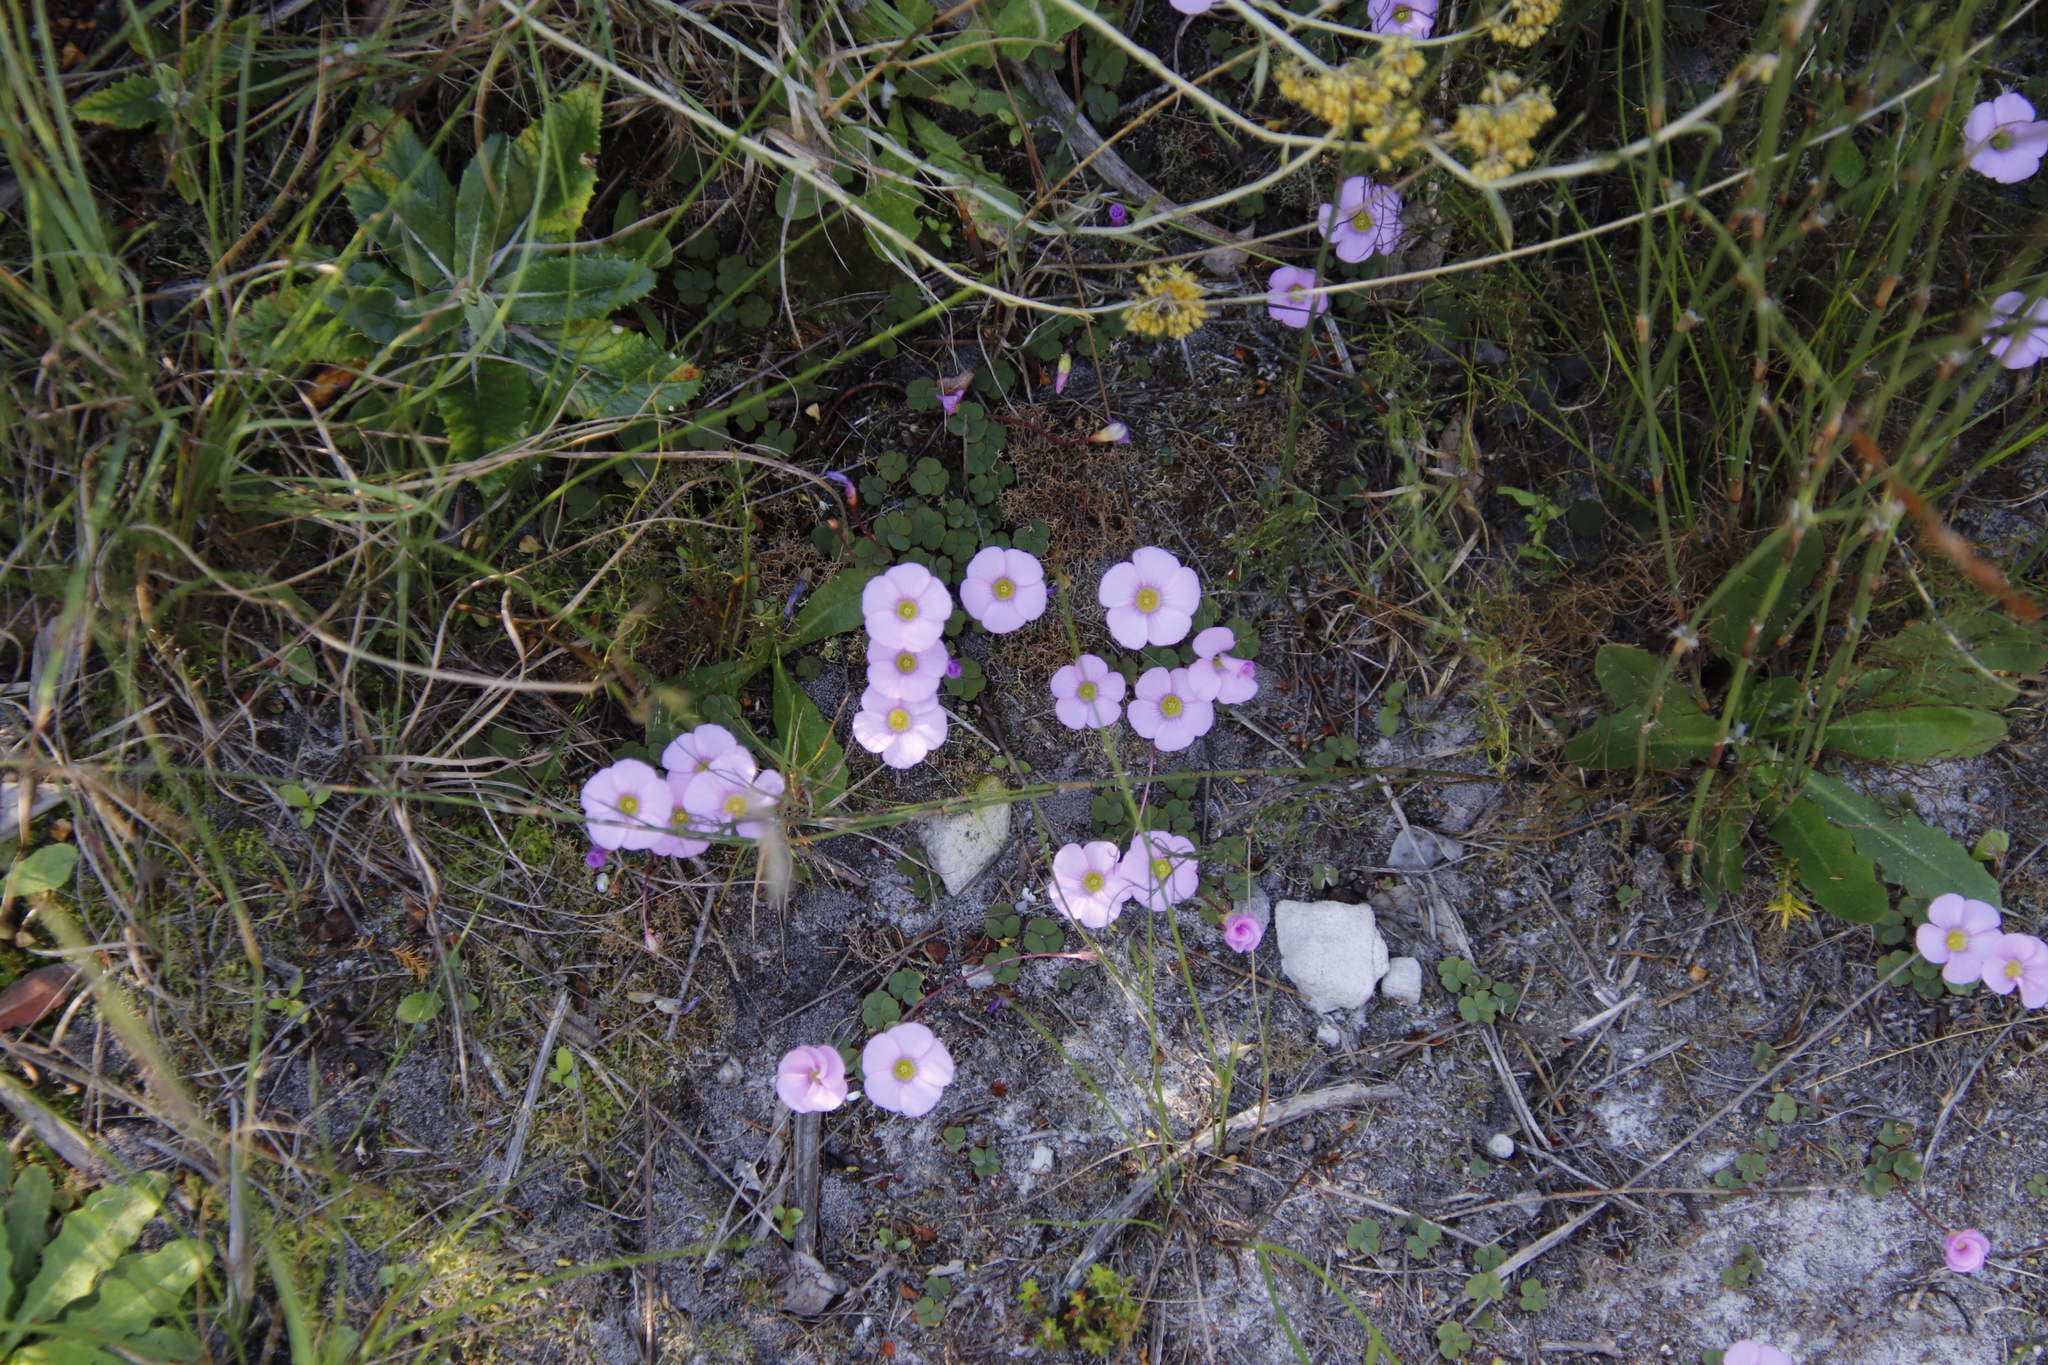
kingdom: Plantae
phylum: Tracheophyta
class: Magnoliopsida
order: Oxalidales
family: Oxalidaceae
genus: Oxalis
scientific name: Oxalis commutata
